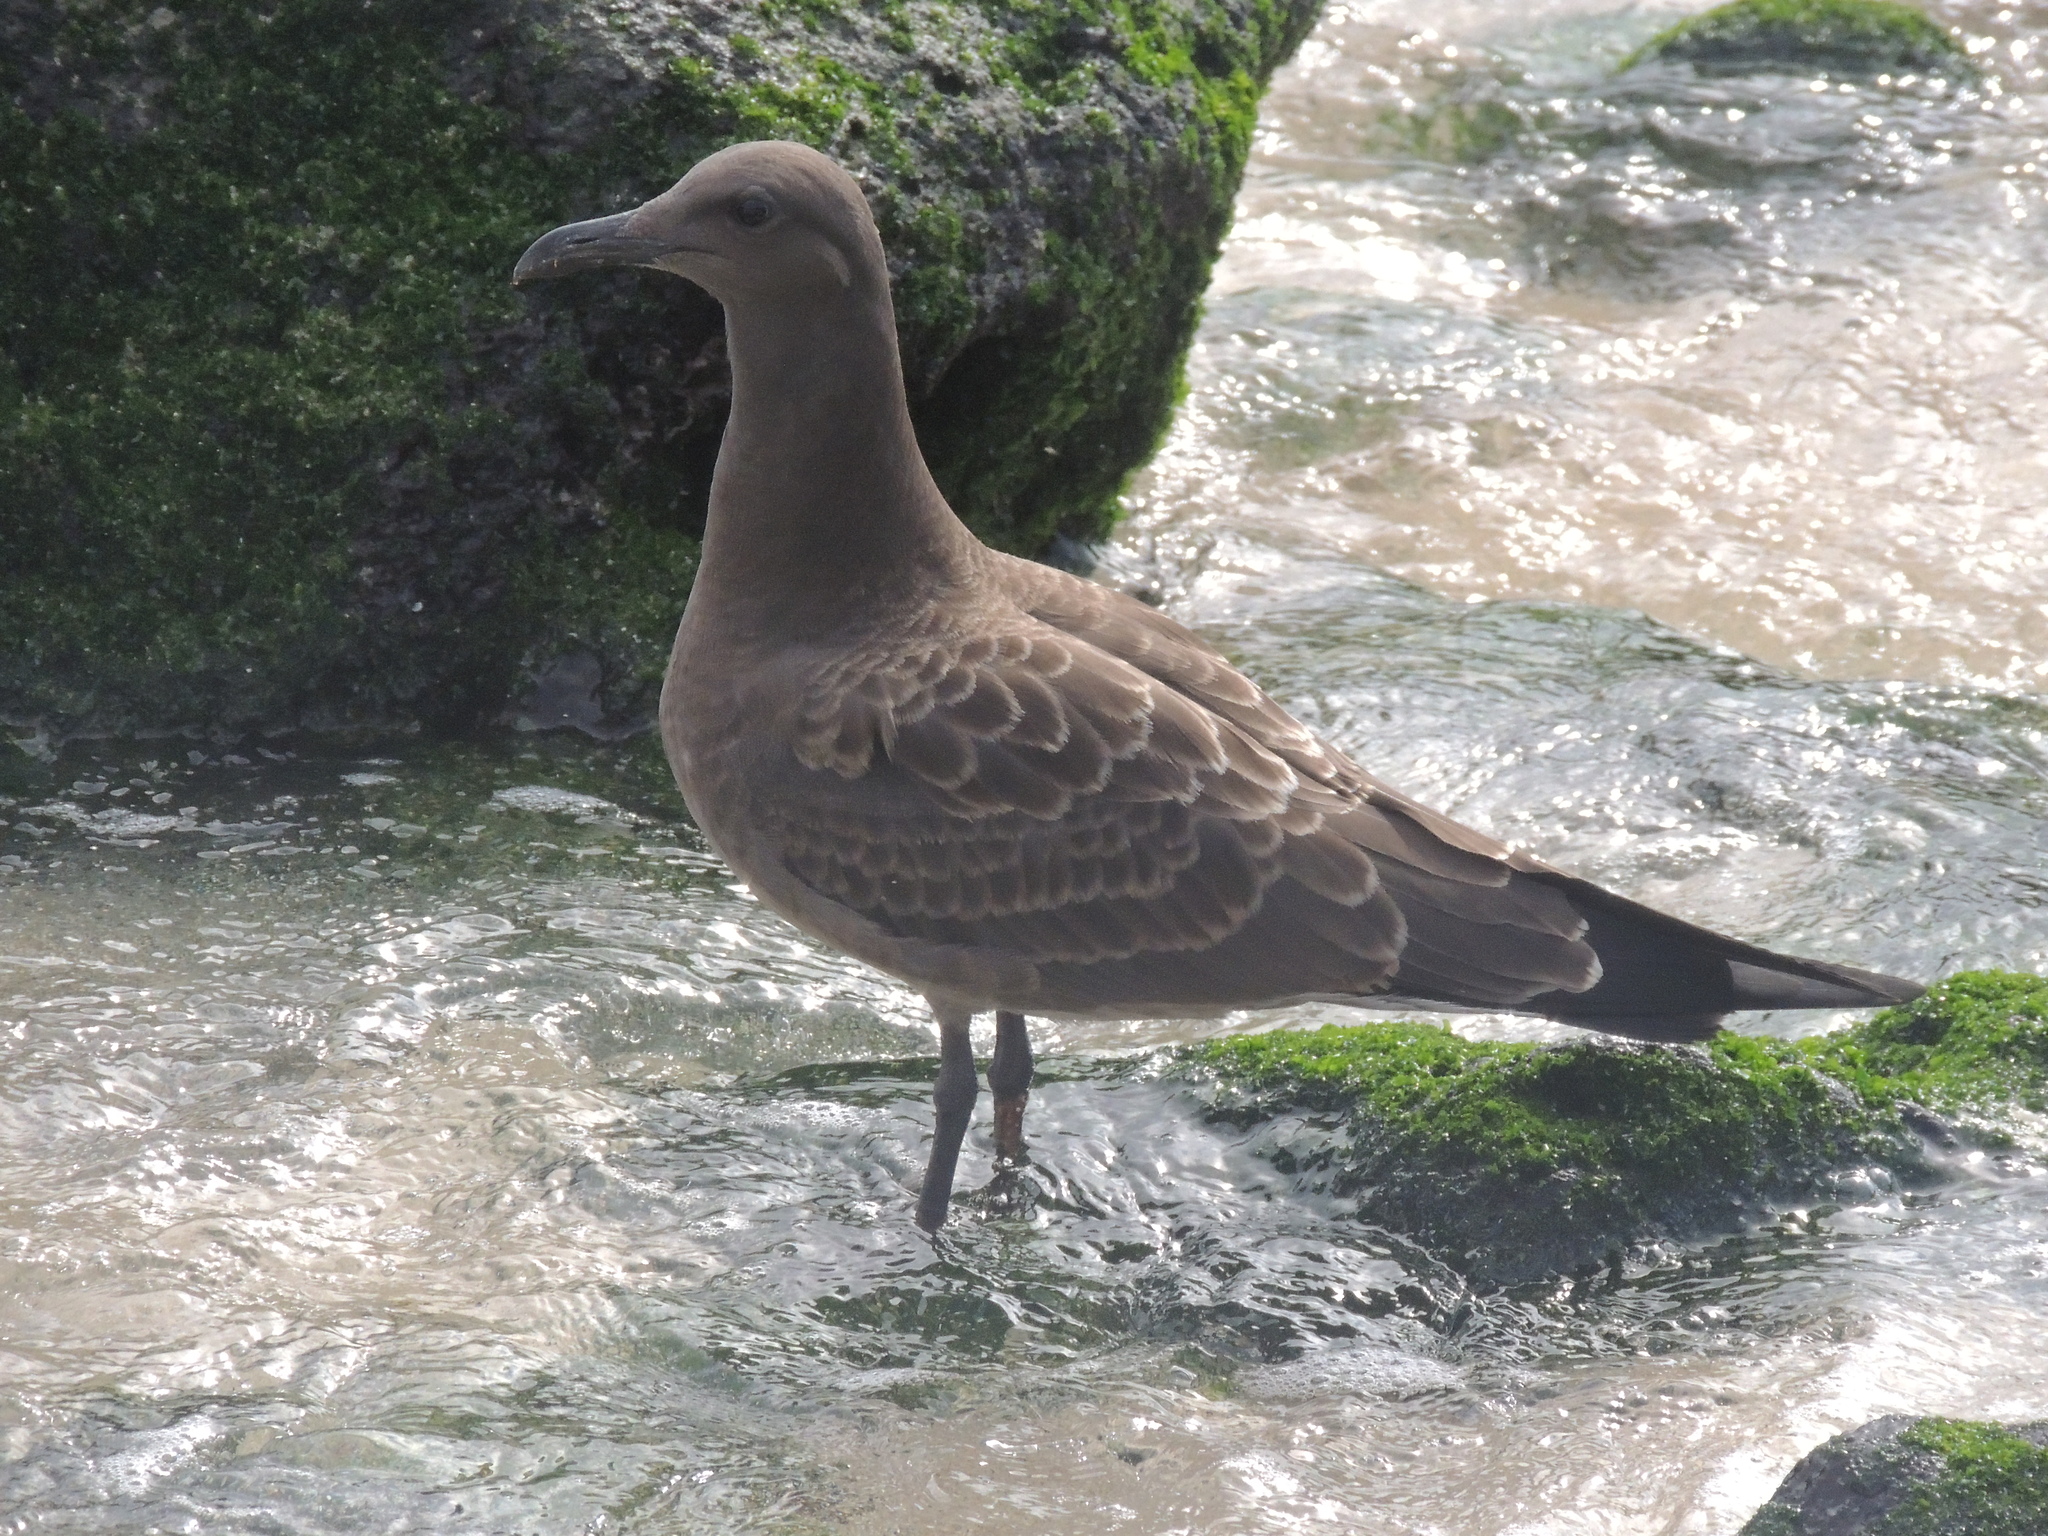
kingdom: Animalia
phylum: Chordata
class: Aves
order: Charadriiformes
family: Laridae
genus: Leucophaeus
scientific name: Leucophaeus fuliginosus
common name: Lava gull
